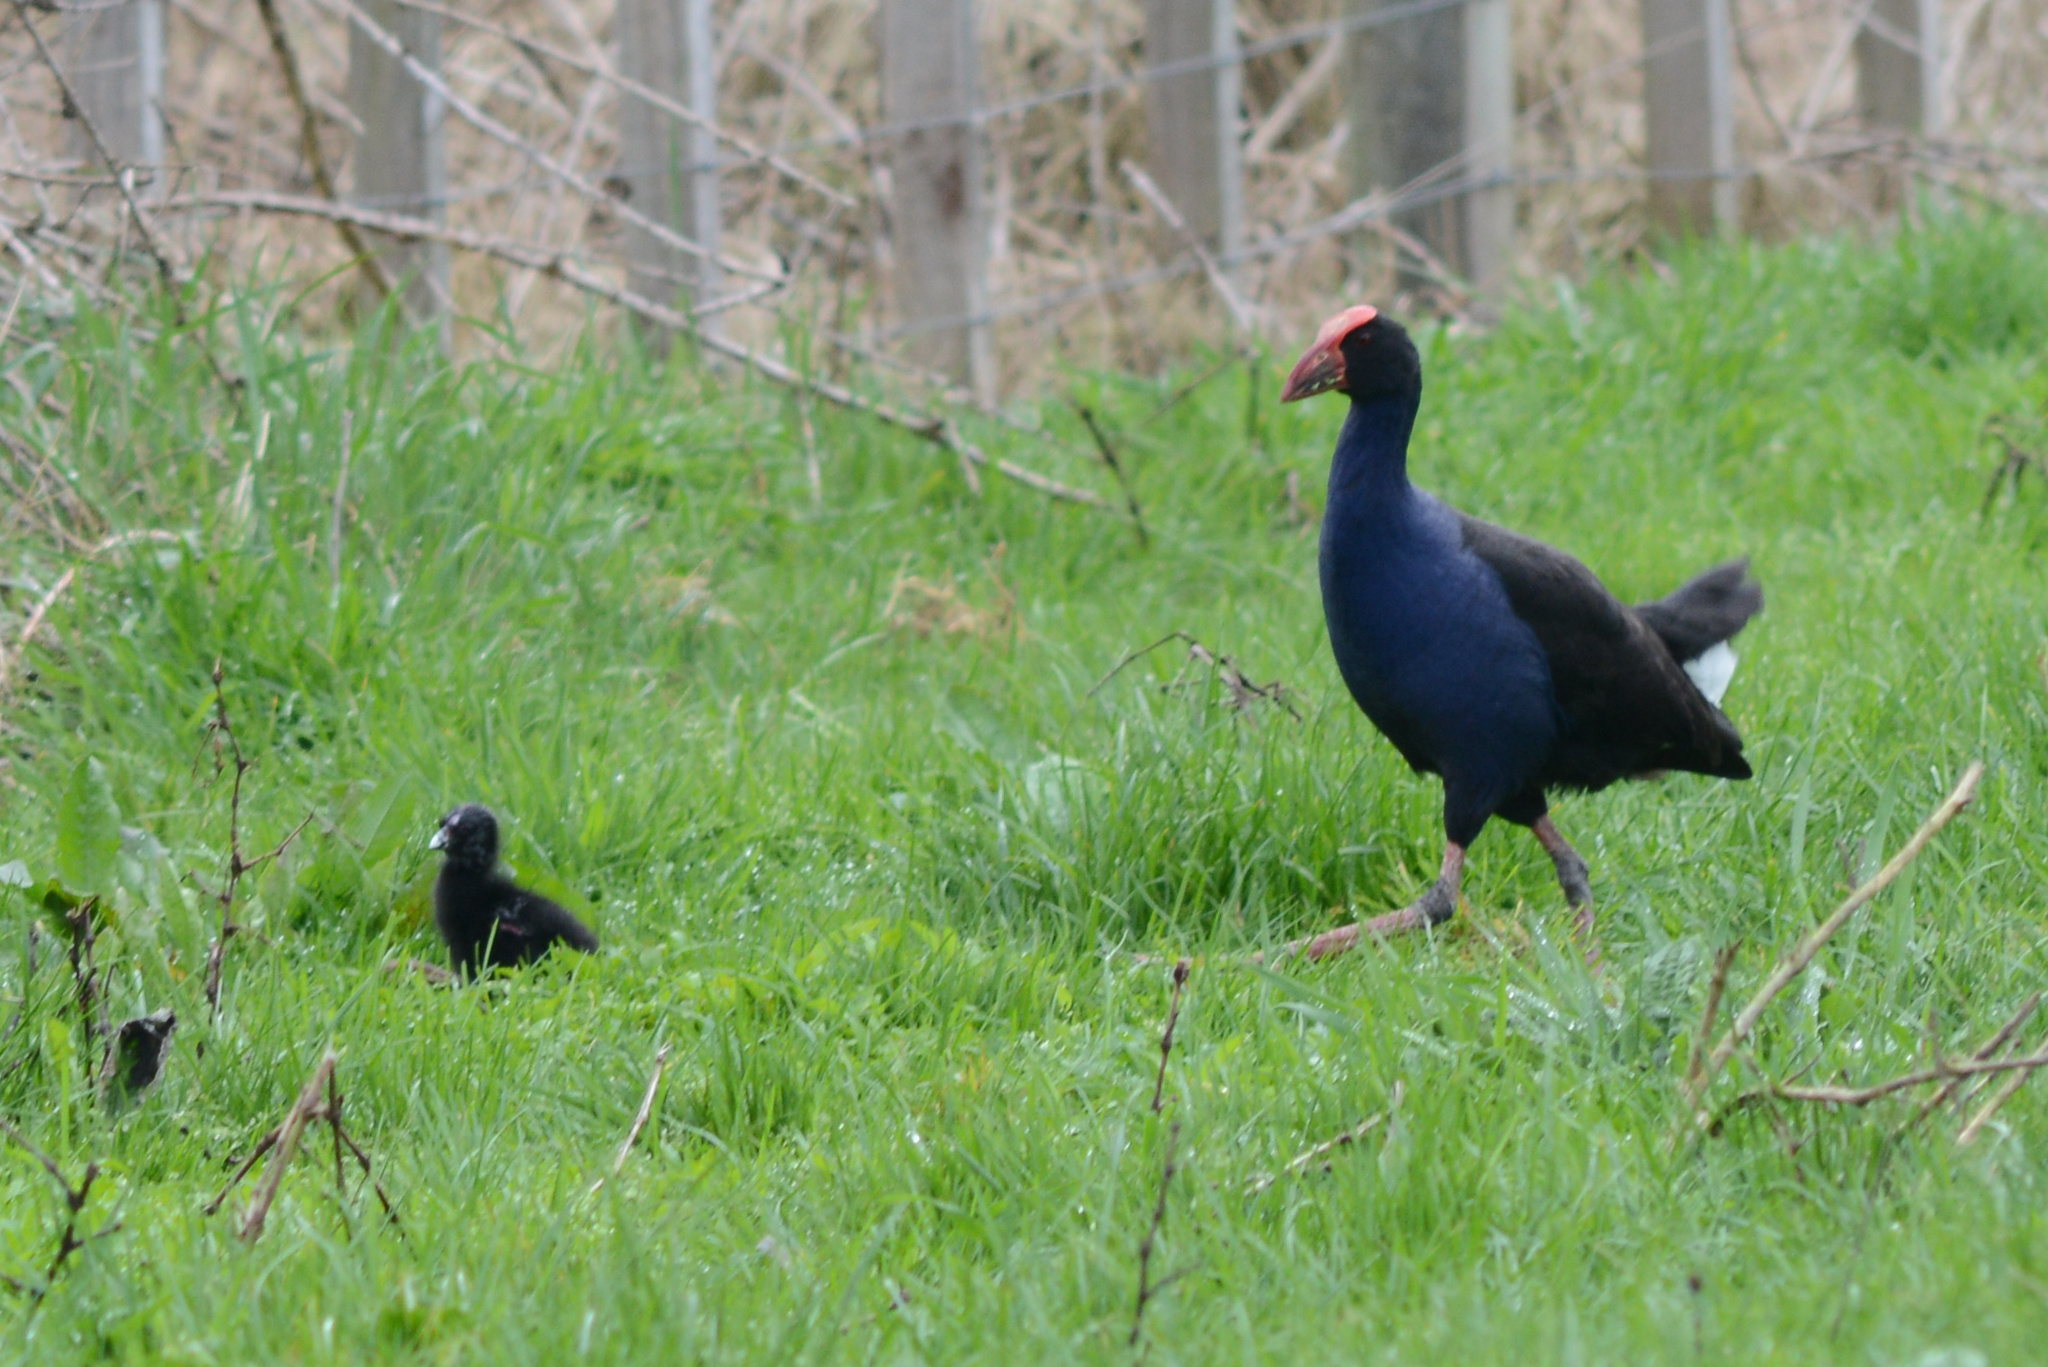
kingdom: Animalia
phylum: Chordata
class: Aves
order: Gruiformes
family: Rallidae
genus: Porphyrio
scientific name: Porphyrio melanotus
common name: Australasian swamphen
